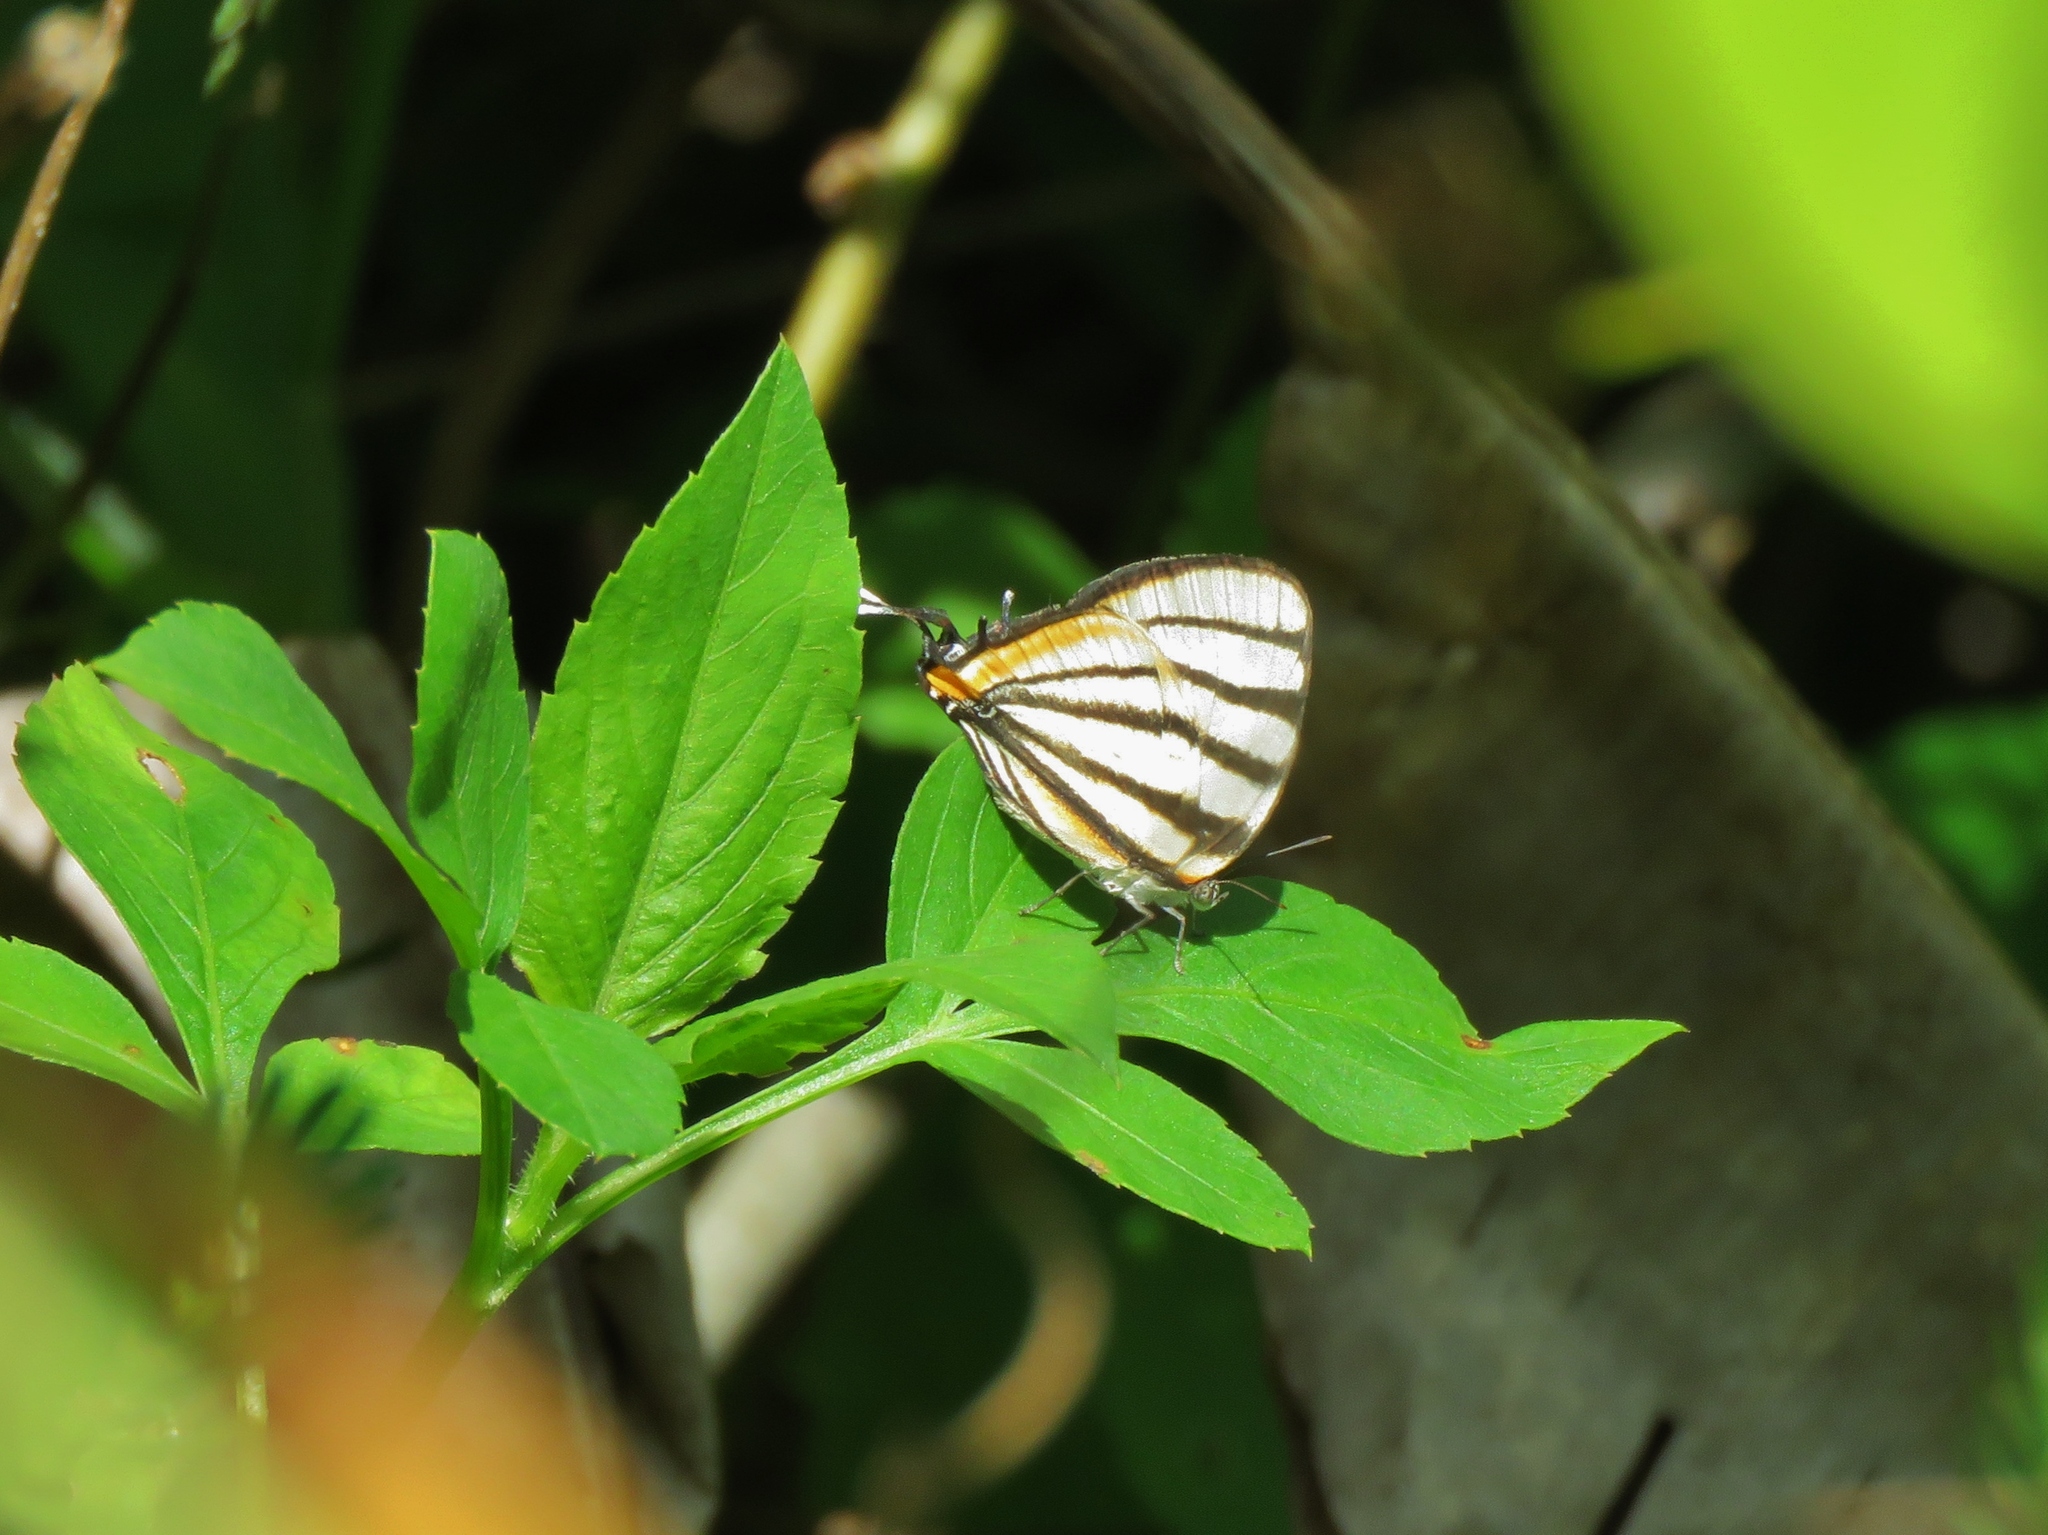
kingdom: Animalia
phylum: Arthropoda
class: Insecta
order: Lepidoptera
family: Lycaenidae
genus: Arawacus
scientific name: Arawacus togarna
